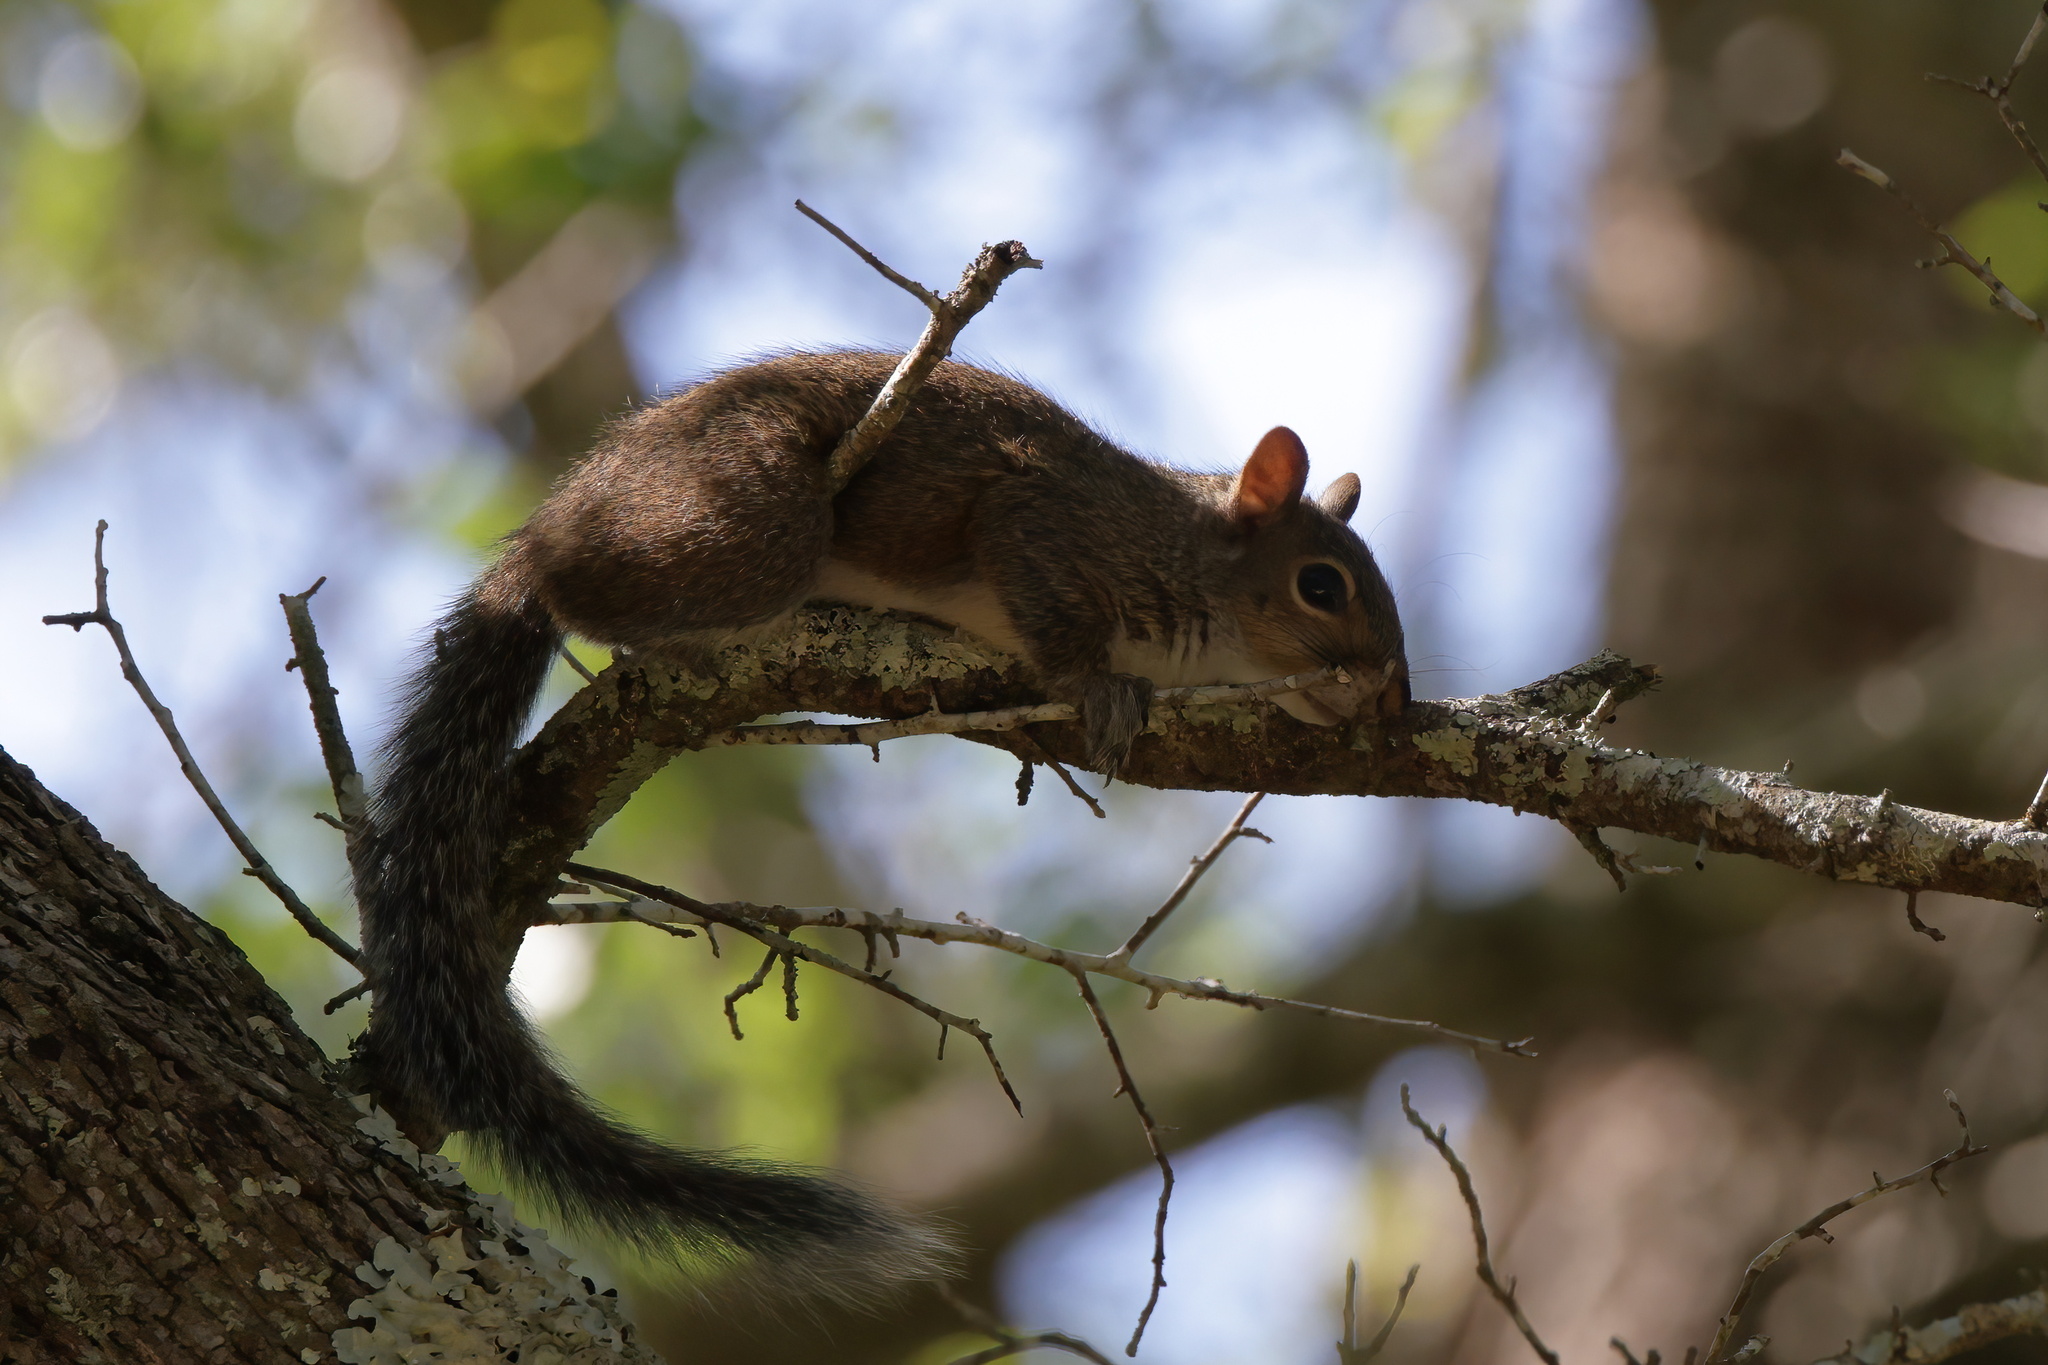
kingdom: Animalia
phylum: Chordata
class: Mammalia
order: Rodentia
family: Sciuridae
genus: Sciurus
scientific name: Sciurus carolinensis
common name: Eastern gray squirrel
